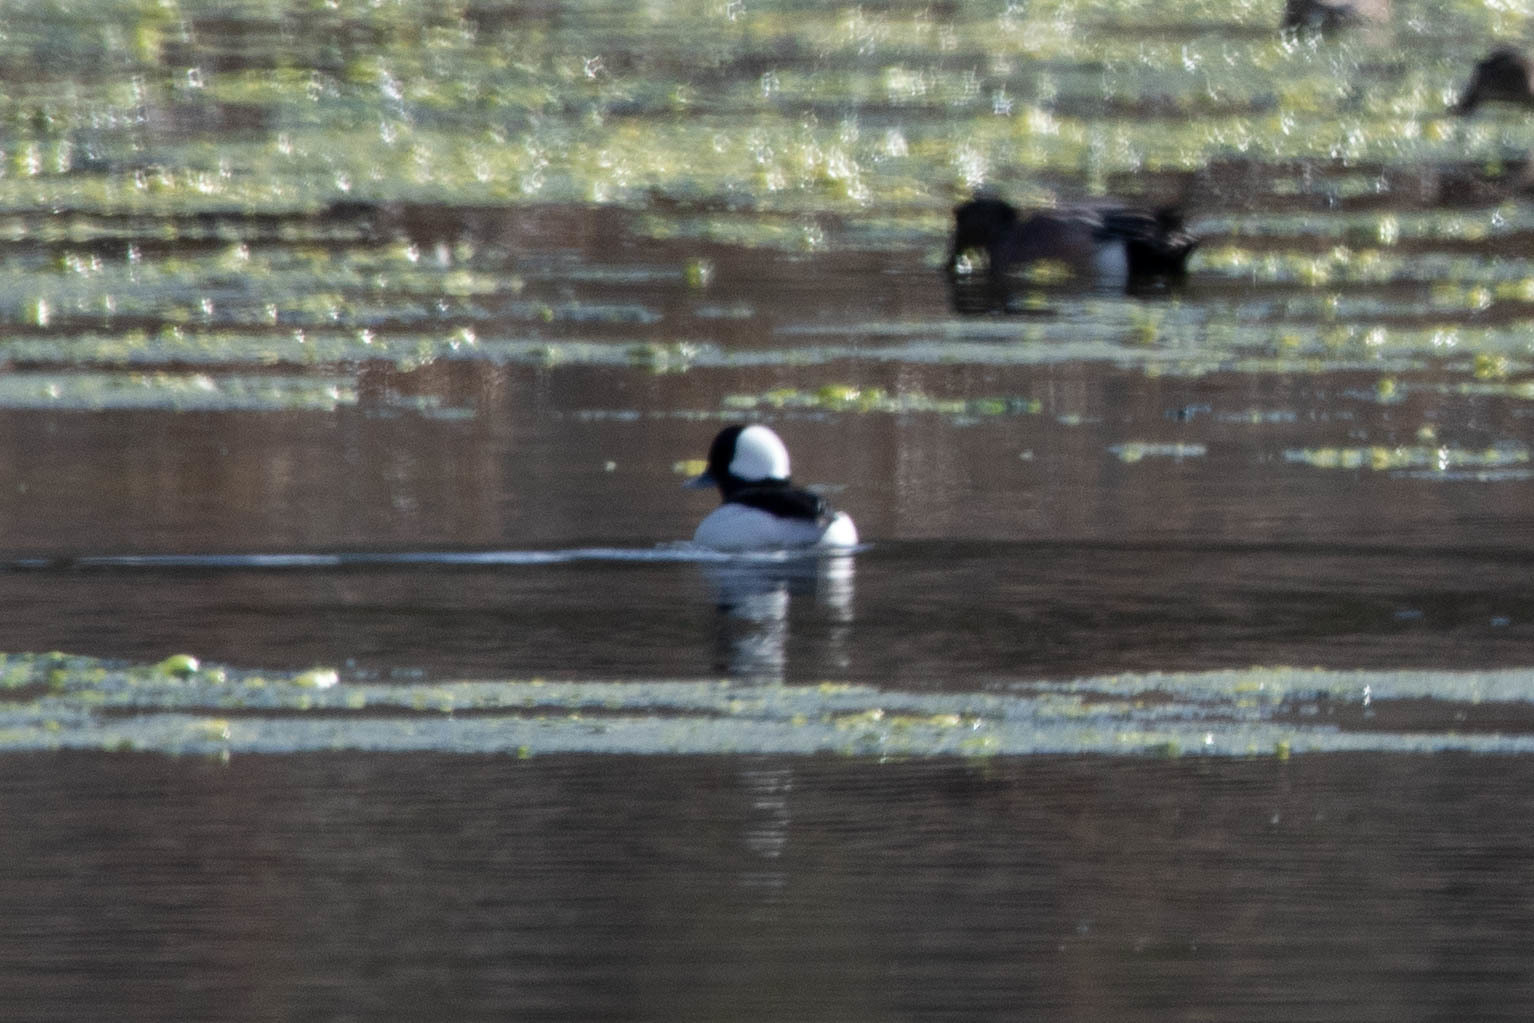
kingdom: Animalia
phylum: Chordata
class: Aves
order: Anseriformes
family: Anatidae
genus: Bucephala
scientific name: Bucephala albeola
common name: Bufflehead
